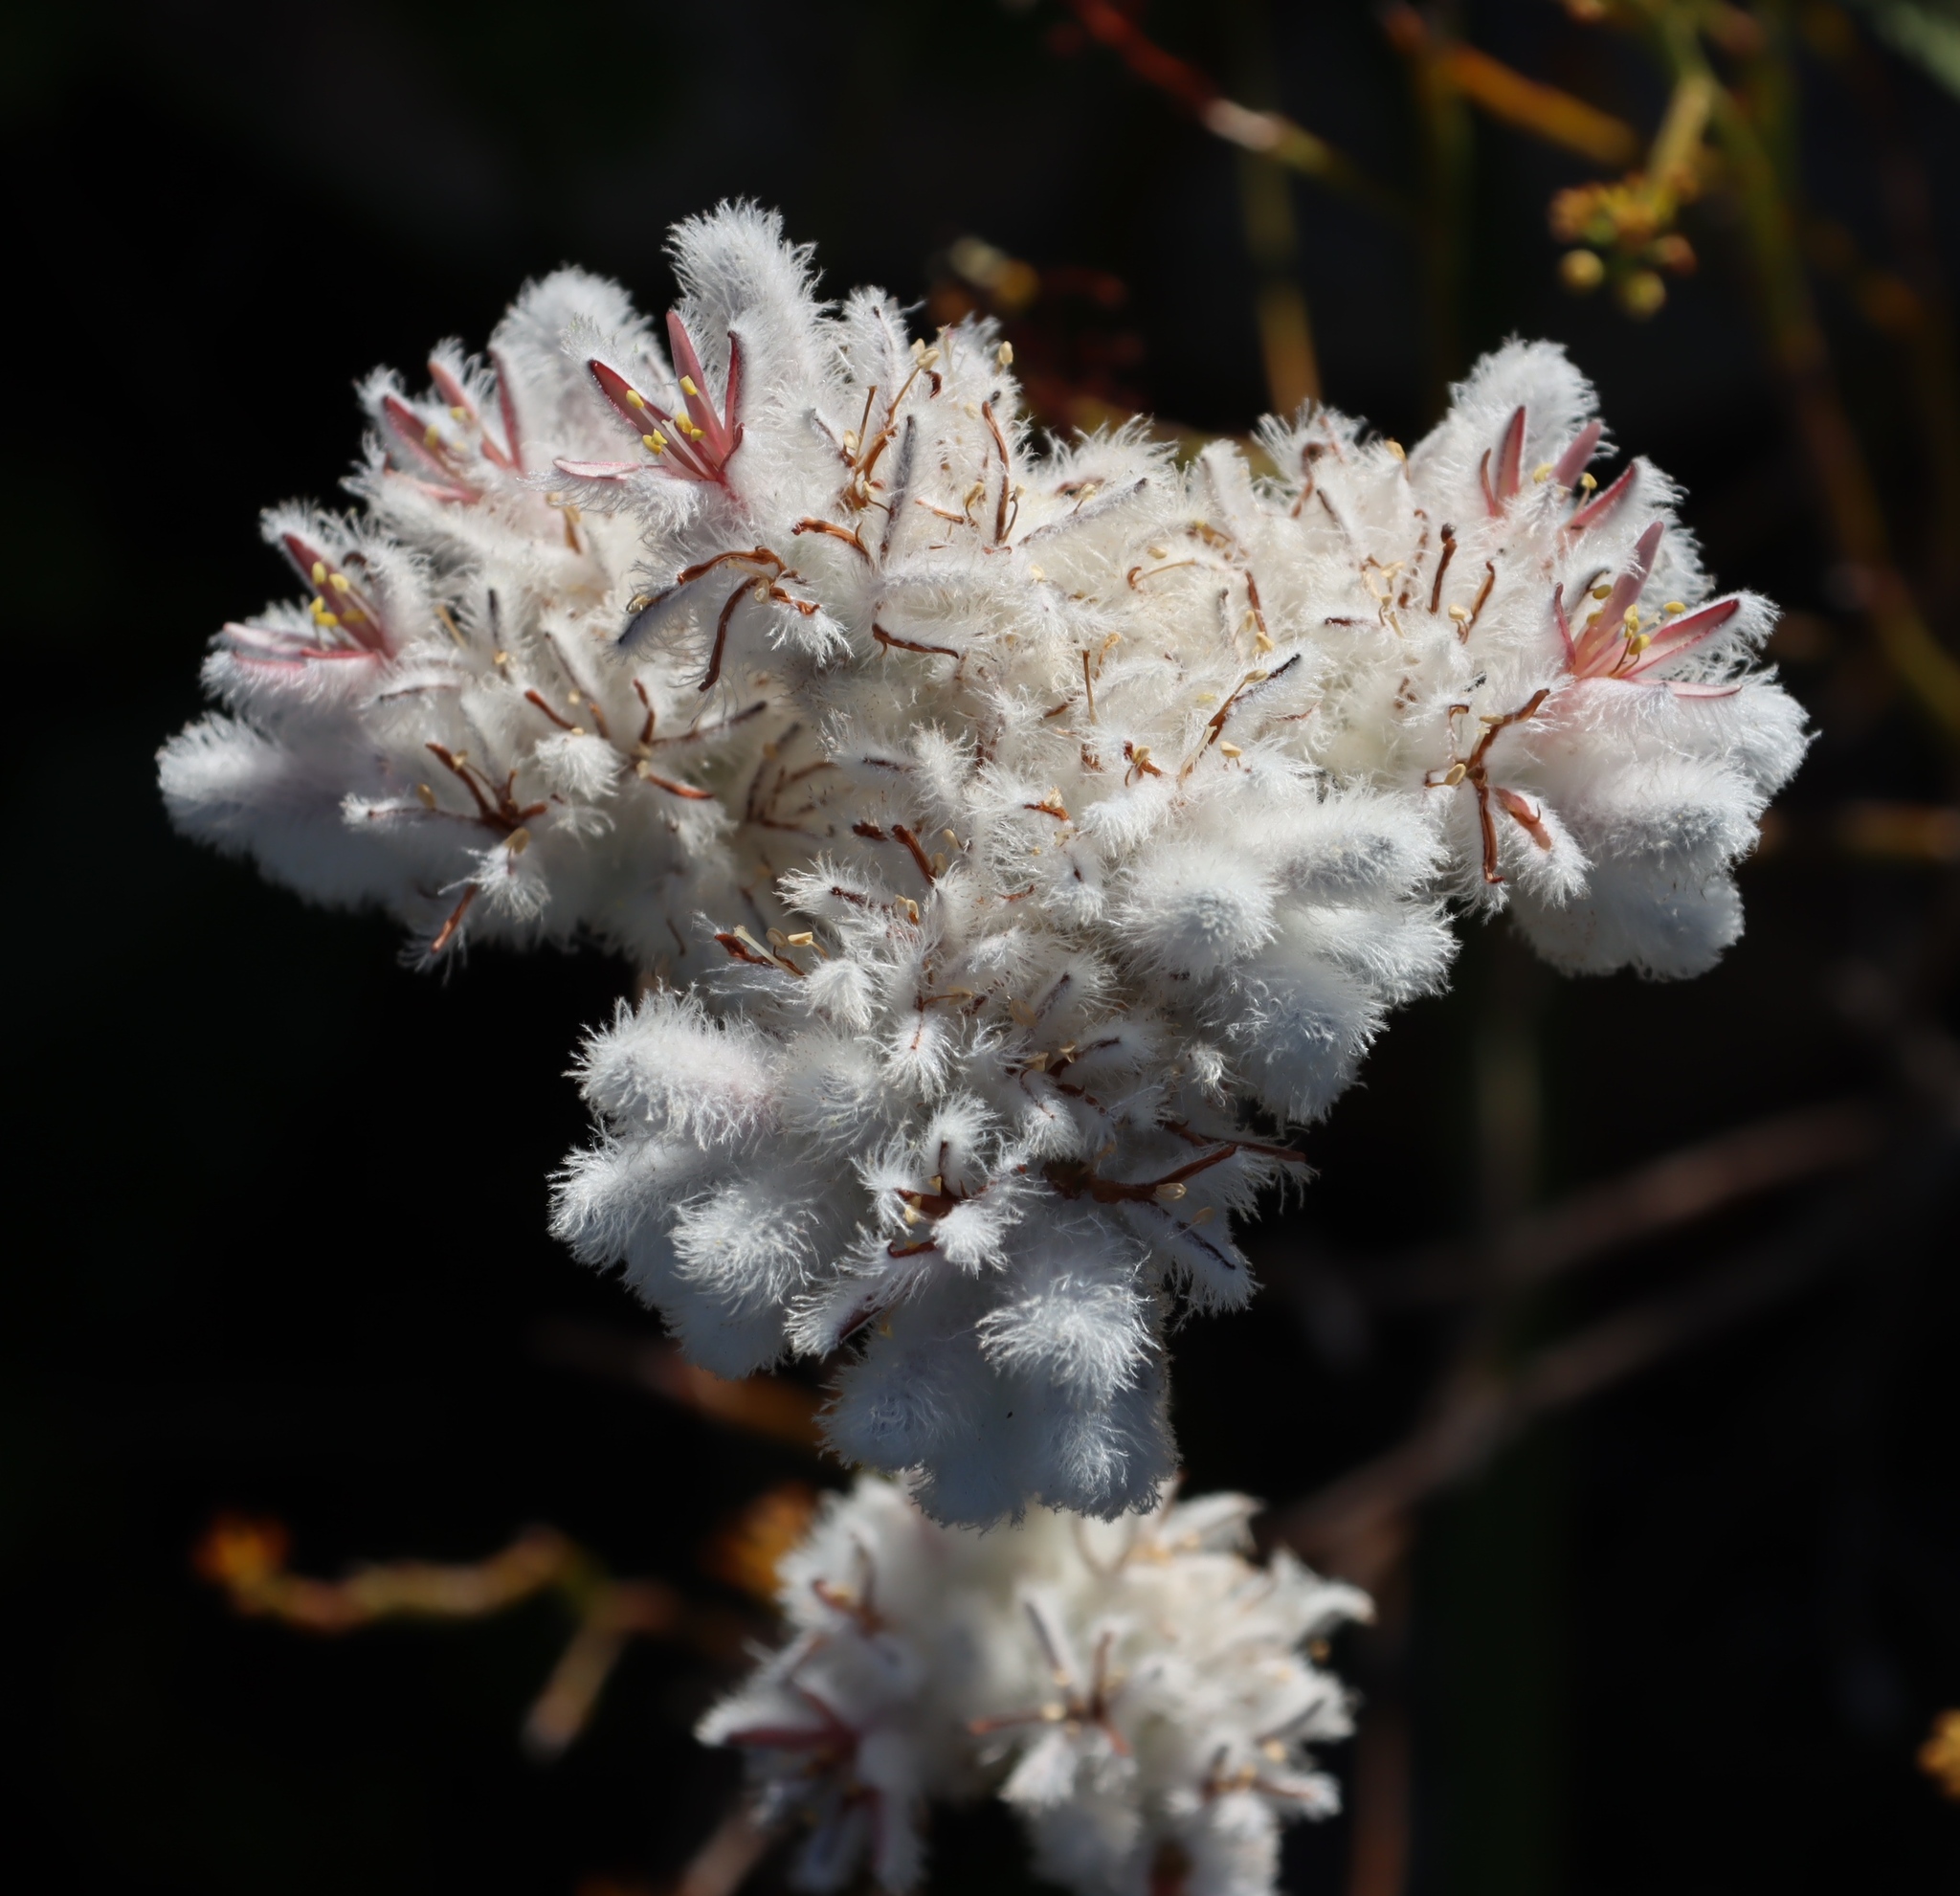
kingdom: Plantae
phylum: Tracheophyta
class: Liliopsida
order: Asparagales
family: Lanariaceae
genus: Lanaria
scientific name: Lanaria lanata
